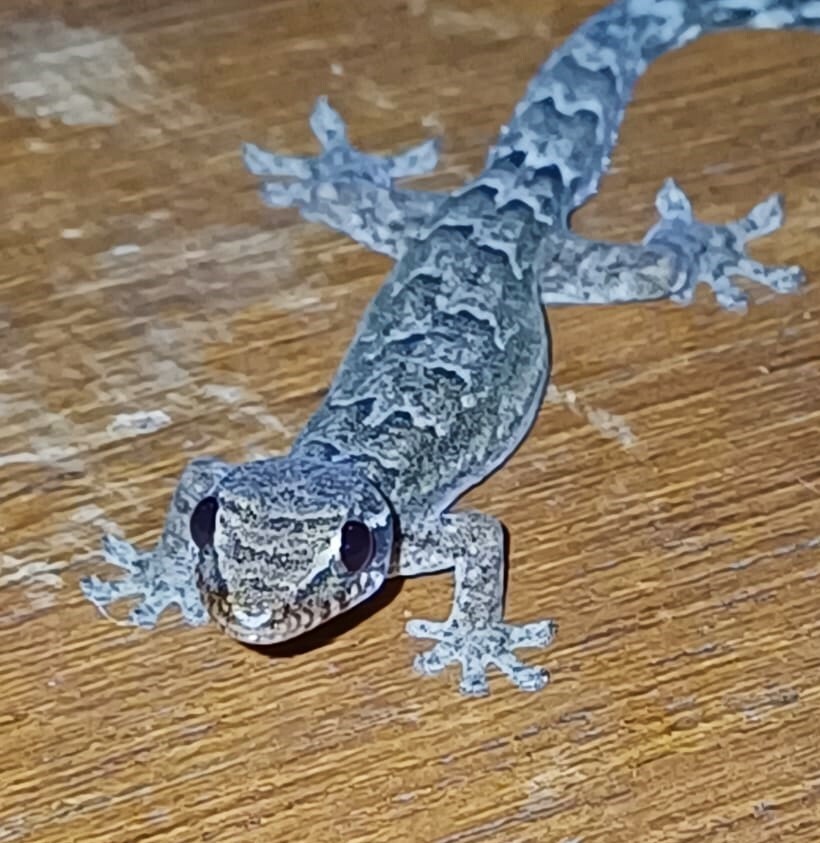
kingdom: Animalia
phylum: Chordata
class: Squamata
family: Gekkonidae
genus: Lepidodactylus
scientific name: Lepidodactylus lugubris
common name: Mourning gecko
